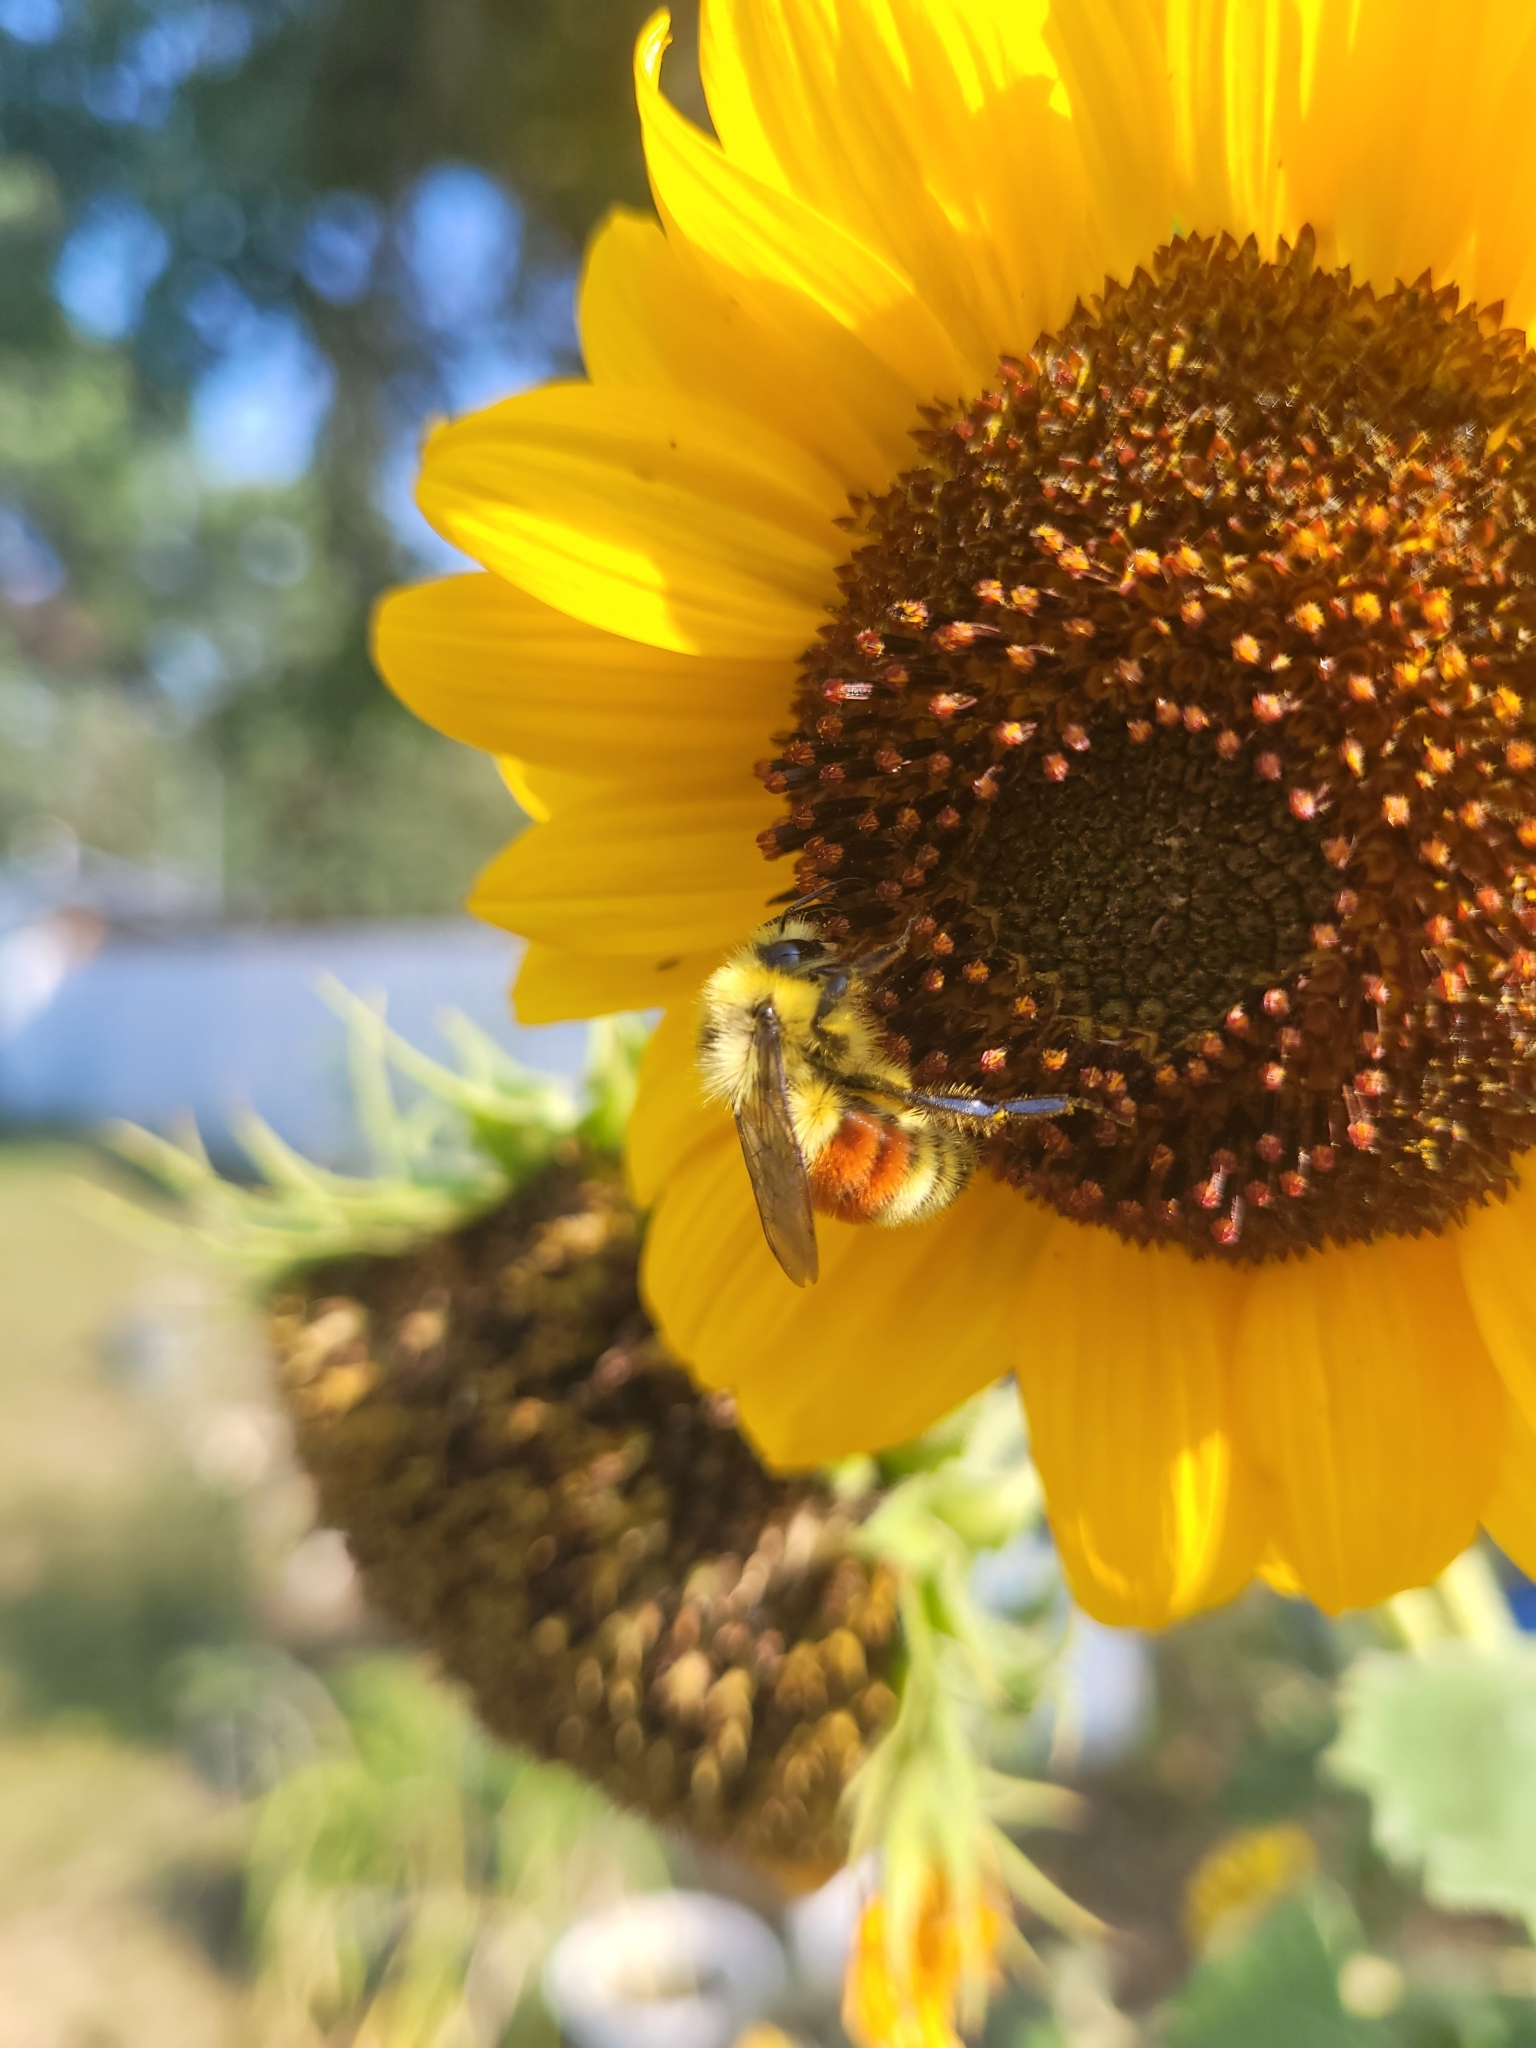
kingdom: Animalia
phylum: Arthropoda
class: Insecta
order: Hymenoptera
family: Apidae
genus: Bombus
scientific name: Bombus huntii
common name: Hunt bumble bee
